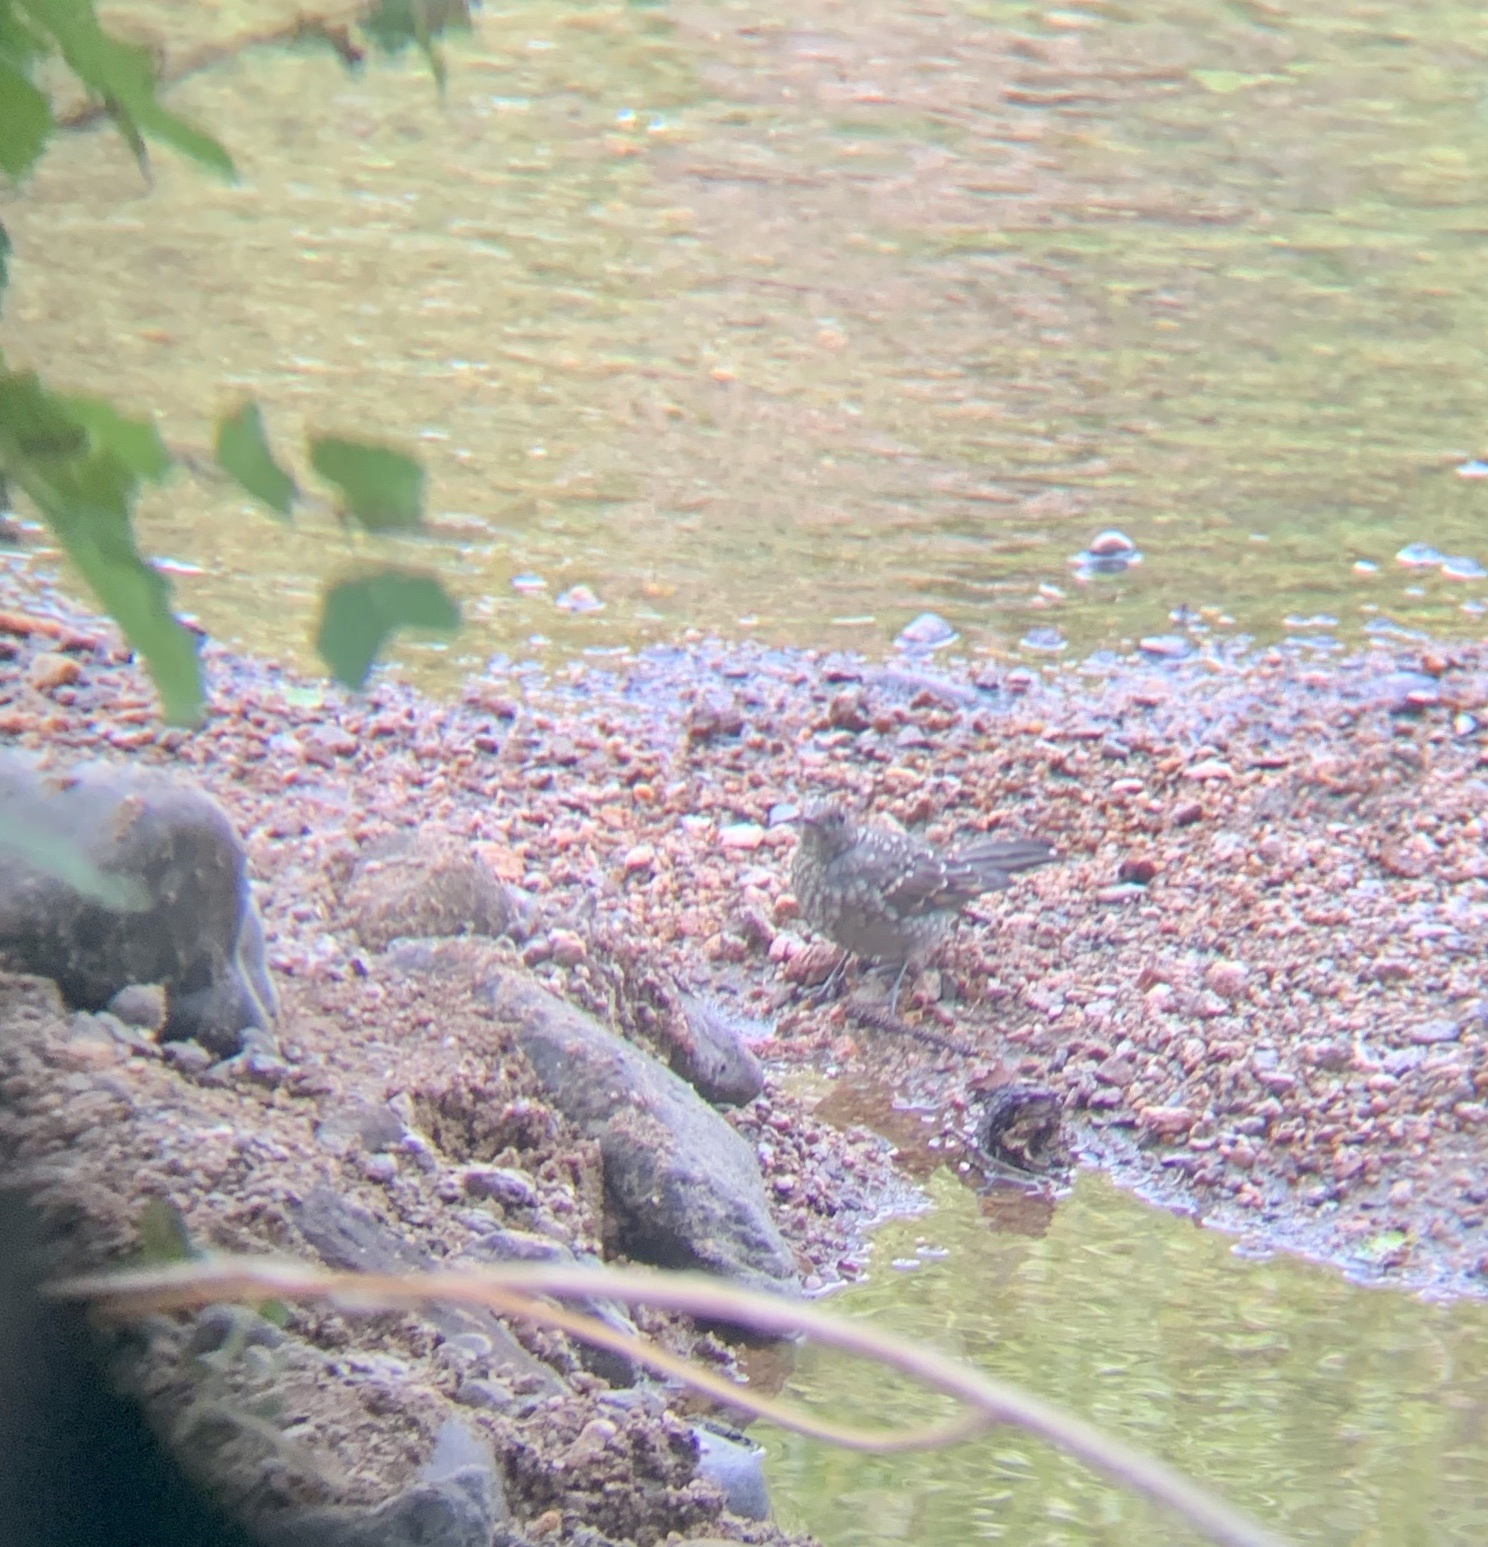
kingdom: Animalia
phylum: Chordata
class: Aves
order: Passeriformes
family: Turdidae
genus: Myadestes
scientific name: Myadestes townsendi
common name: Townsend's solitaire
